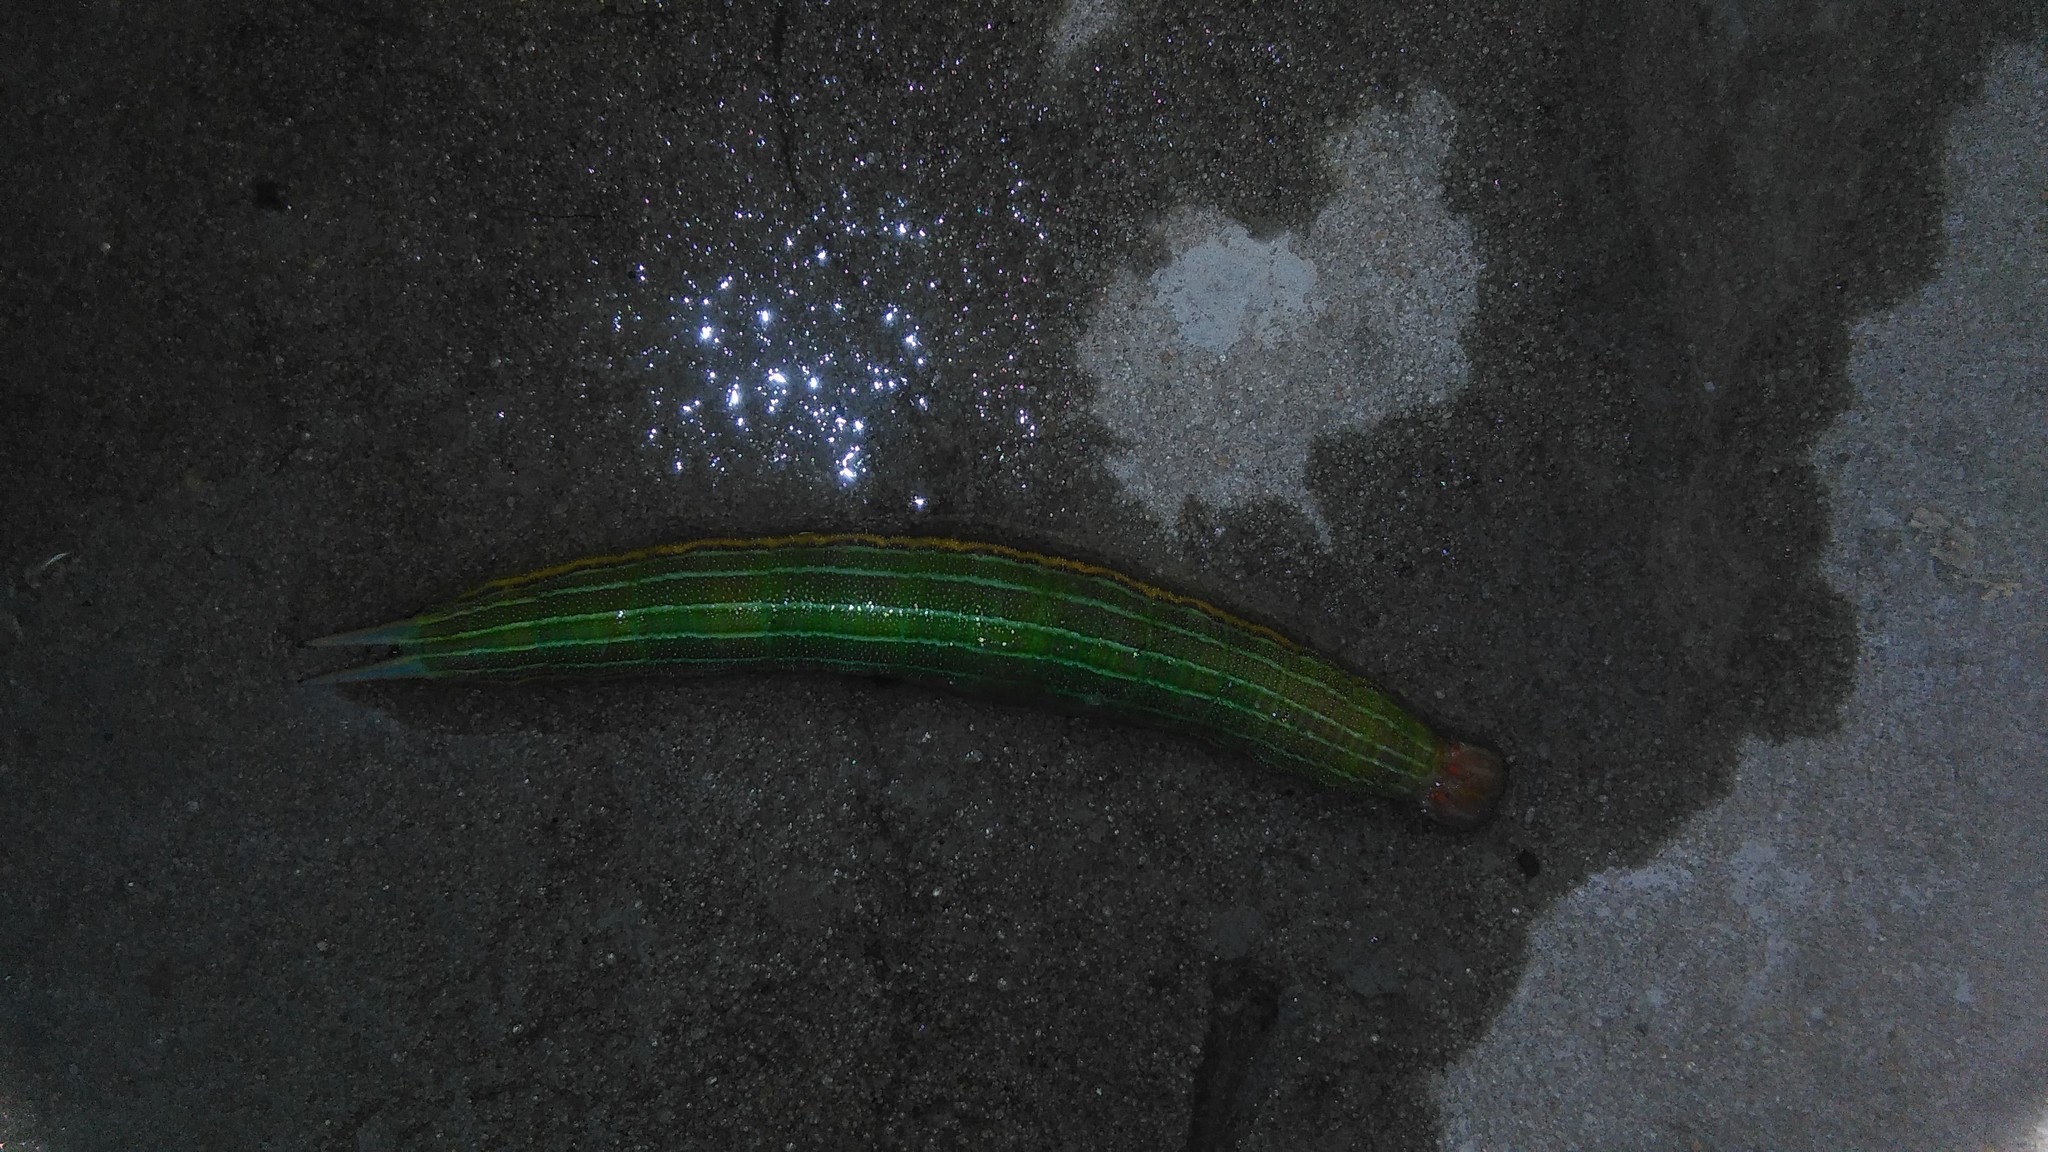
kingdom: Animalia
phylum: Arthropoda
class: Insecta
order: Lepidoptera
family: Nymphalidae
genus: Opsiphanes
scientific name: Opsiphanes invirae
